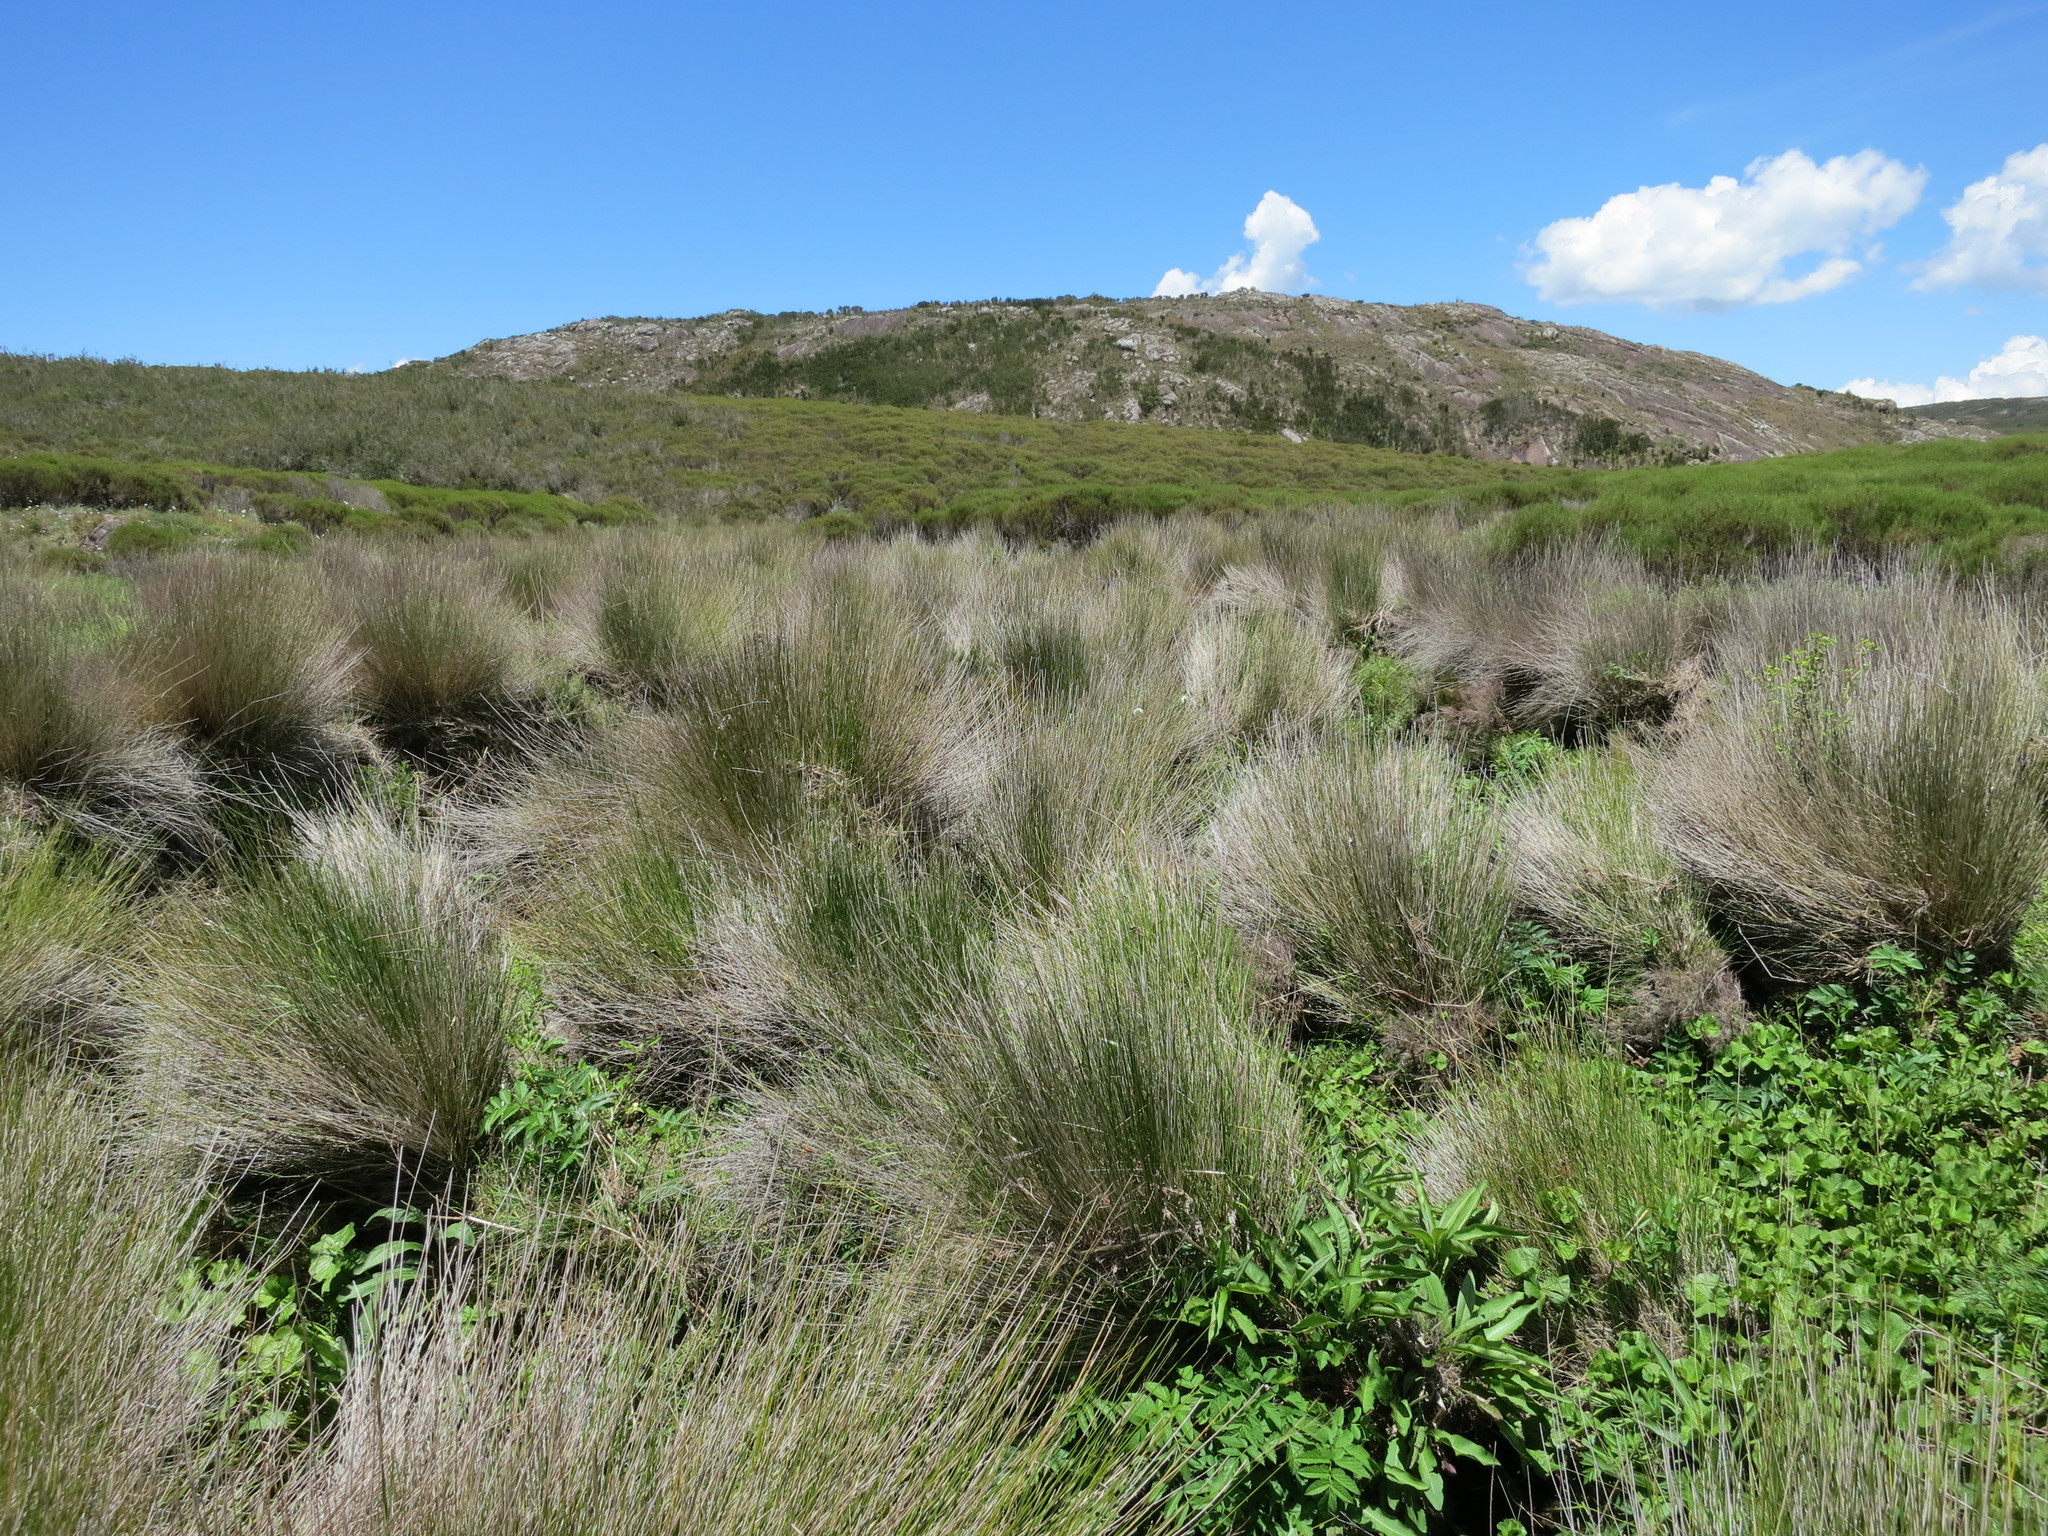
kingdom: Plantae
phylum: Tracheophyta
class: Liliopsida
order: Poales
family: Poaceae
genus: Arundinella
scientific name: Arundinella nepalensis
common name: Reed grass
